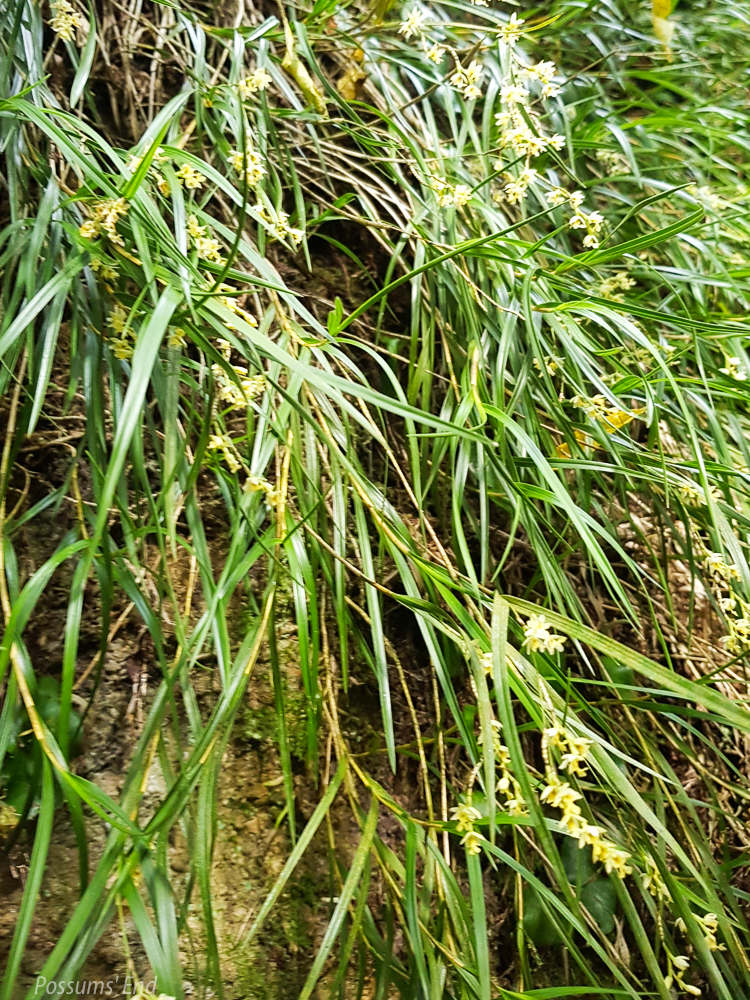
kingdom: Plantae
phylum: Tracheophyta
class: Liliopsida
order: Asparagales
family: Orchidaceae
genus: Earina
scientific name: Earina mucronata
